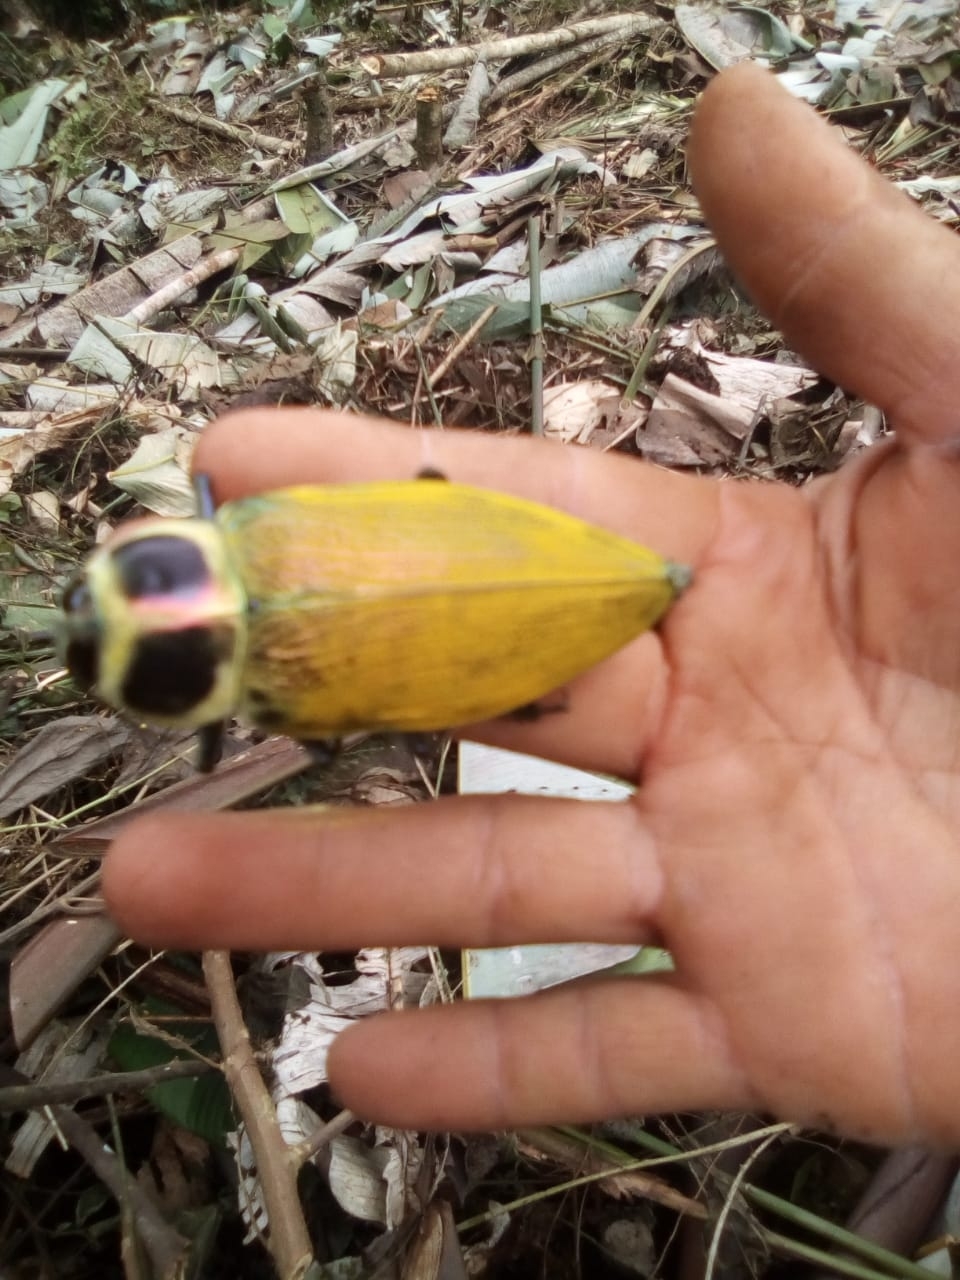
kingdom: Animalia
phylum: Arthropoda
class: Insecta
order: Coleoptera
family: Buprestidae
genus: Euchroma
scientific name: Euchroma giganteum
